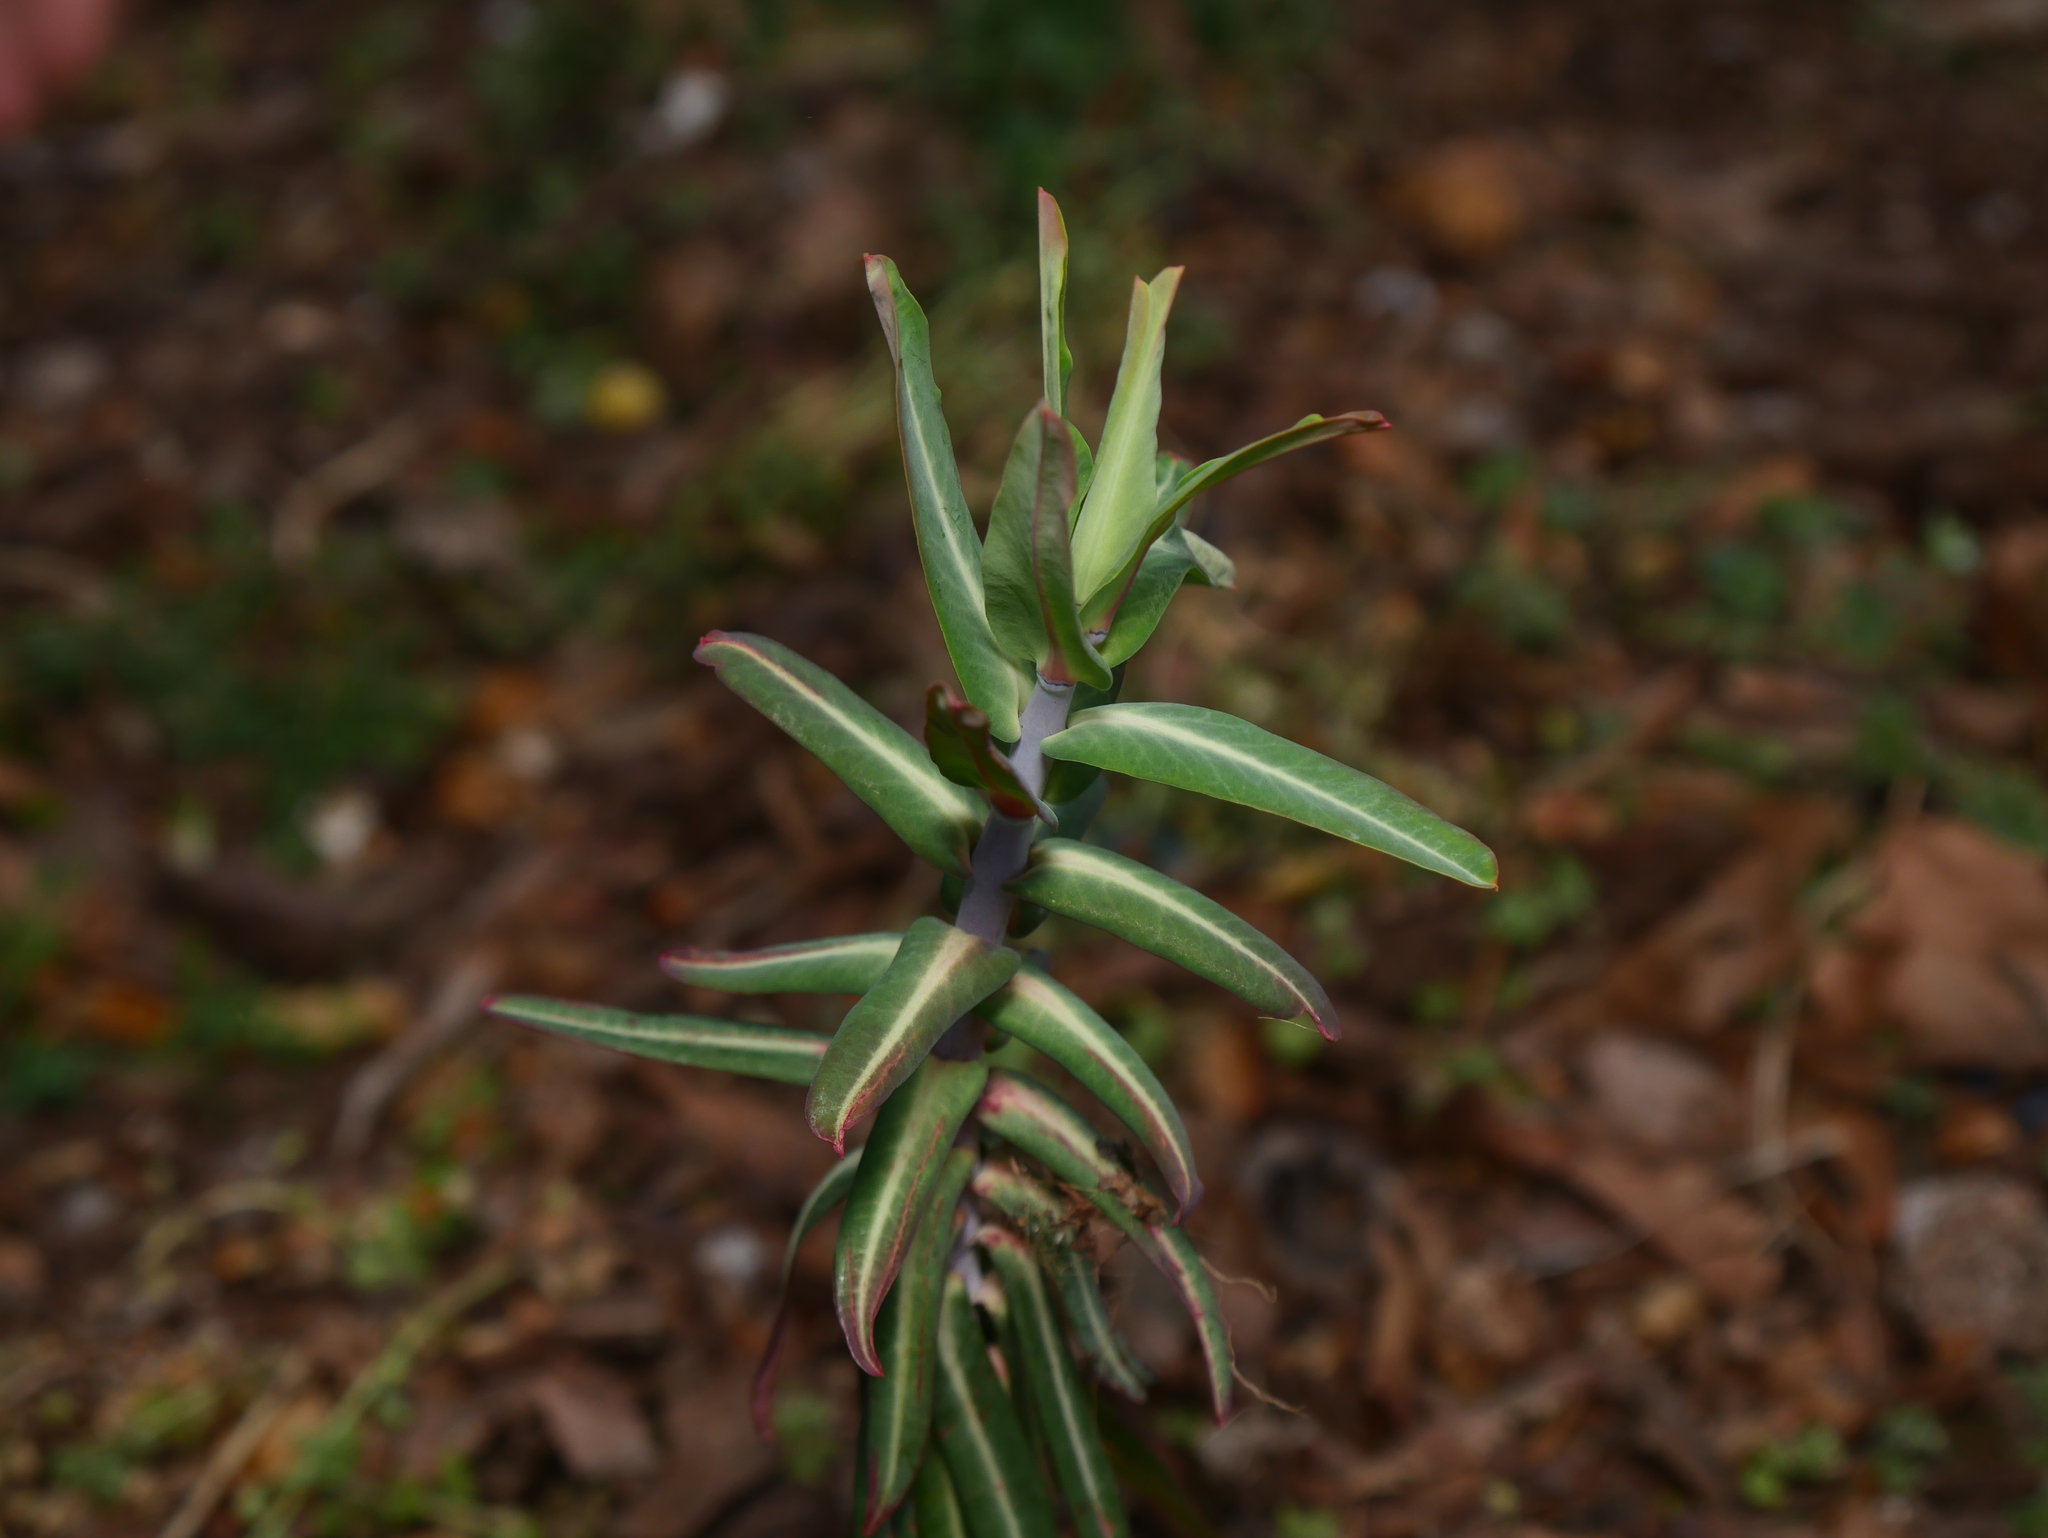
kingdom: Plantae
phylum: Tracheophyta
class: Magnoliopsida
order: Malpighiales
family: Euphorbiaceae
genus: Euphorbia
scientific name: Euphorbia lathyris
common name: Caper spurge
